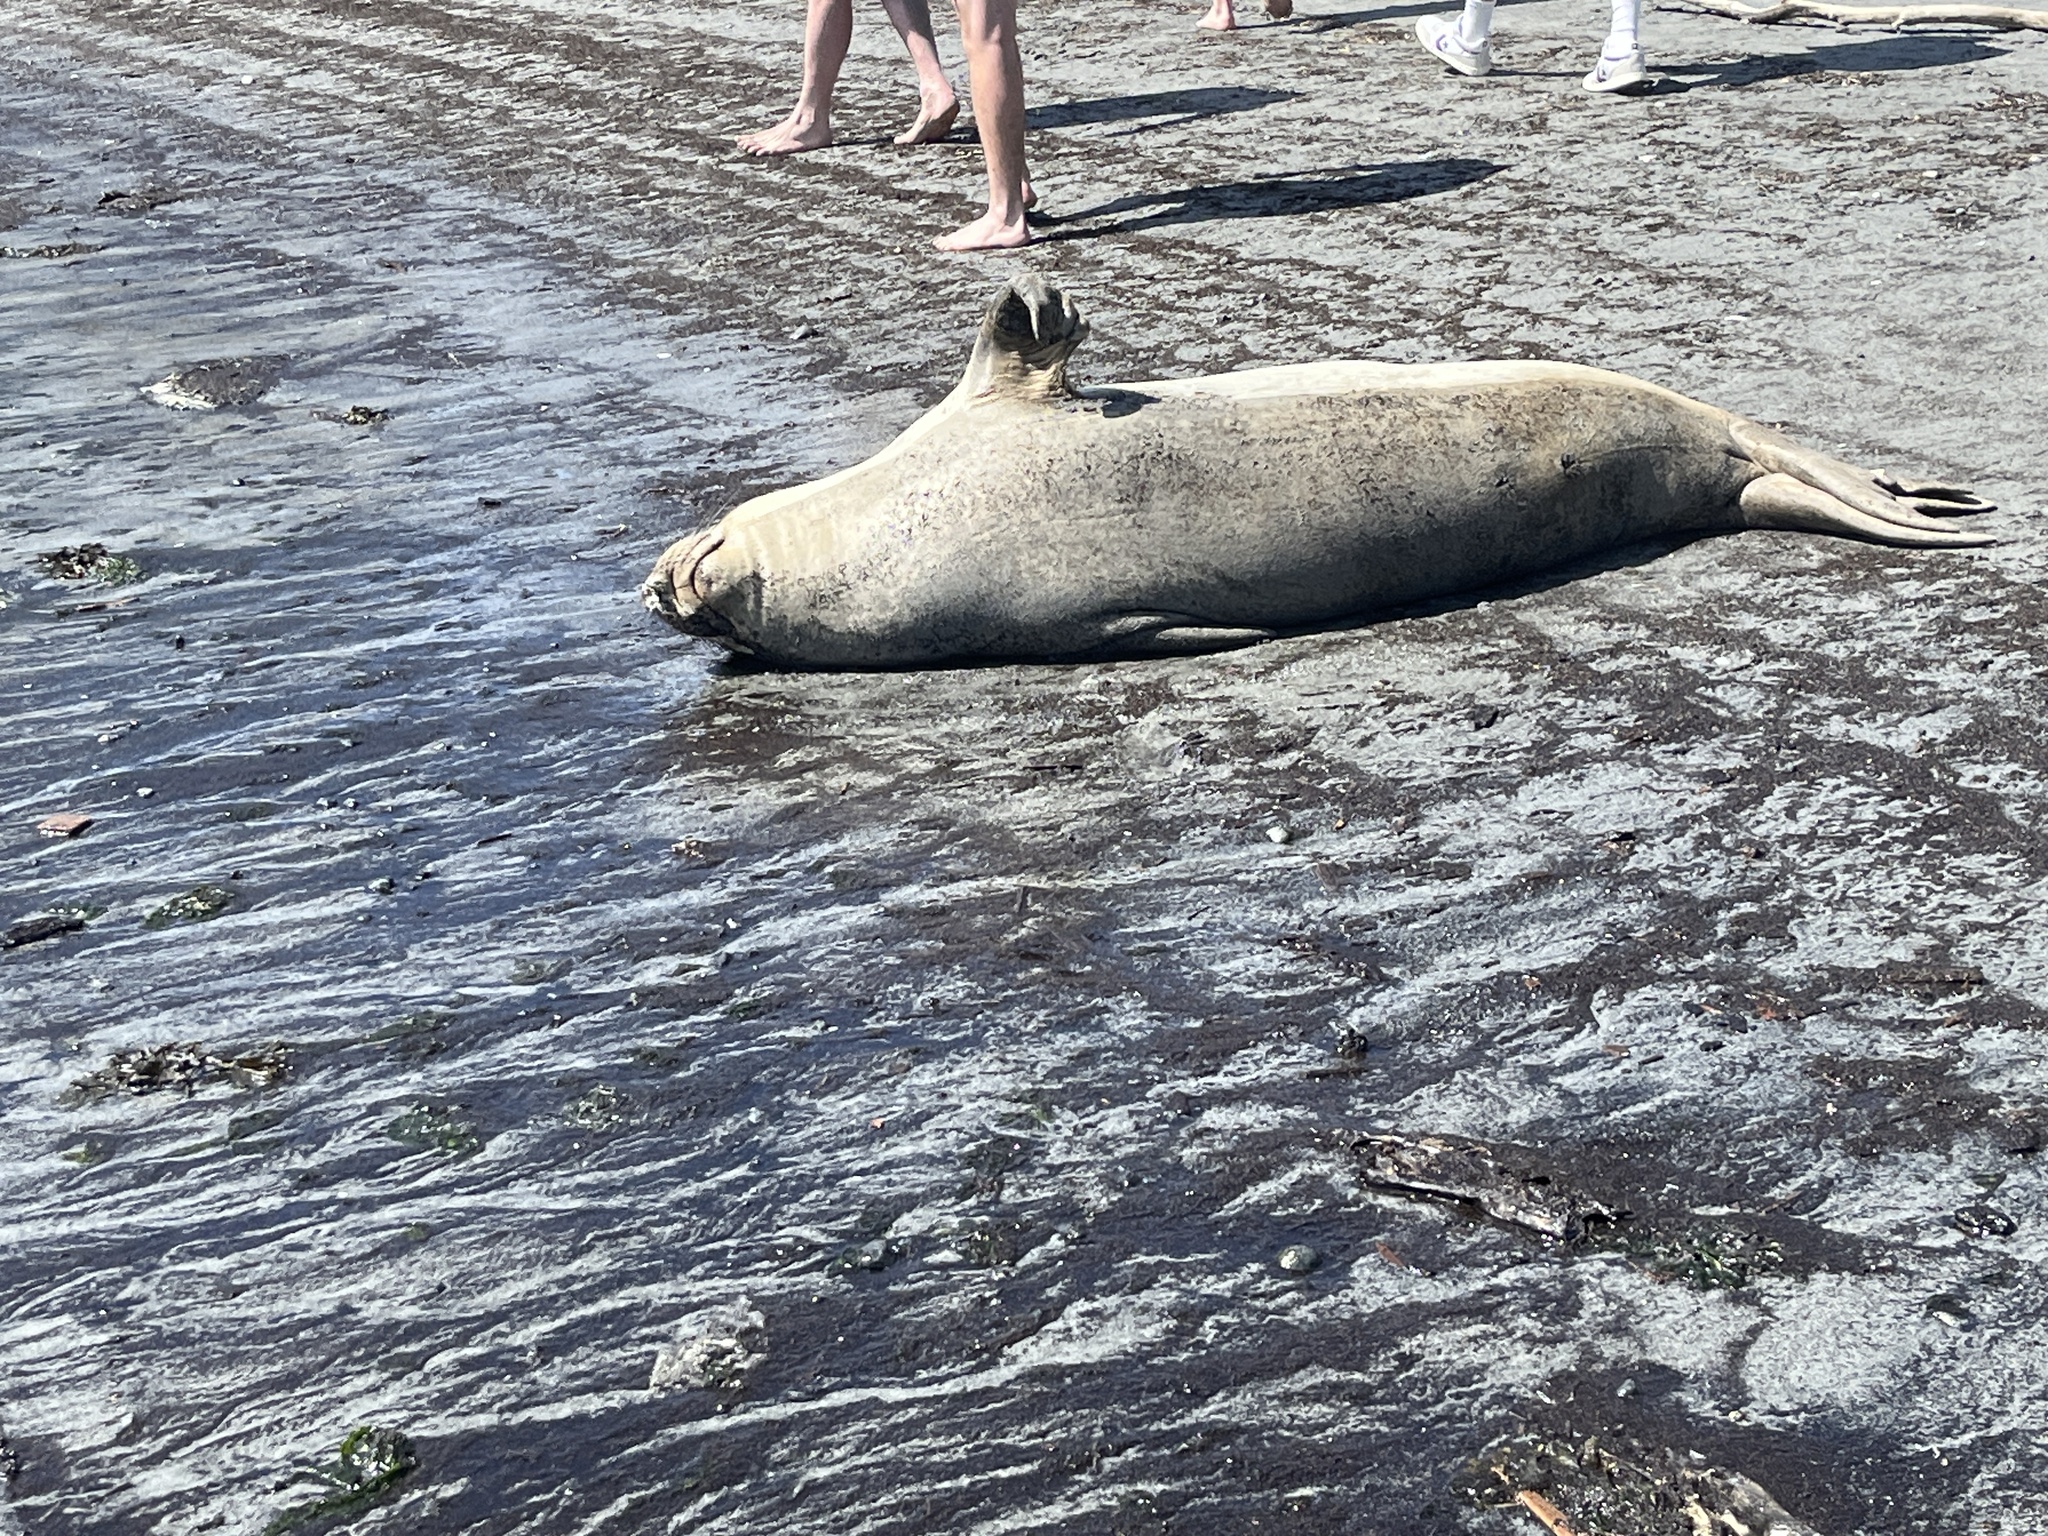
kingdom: Animalia
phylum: Chordata
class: Mammalia
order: Carnivora
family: Phocidae
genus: Mirounga
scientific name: Mirounga angustirostris
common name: Northern elephant seal
